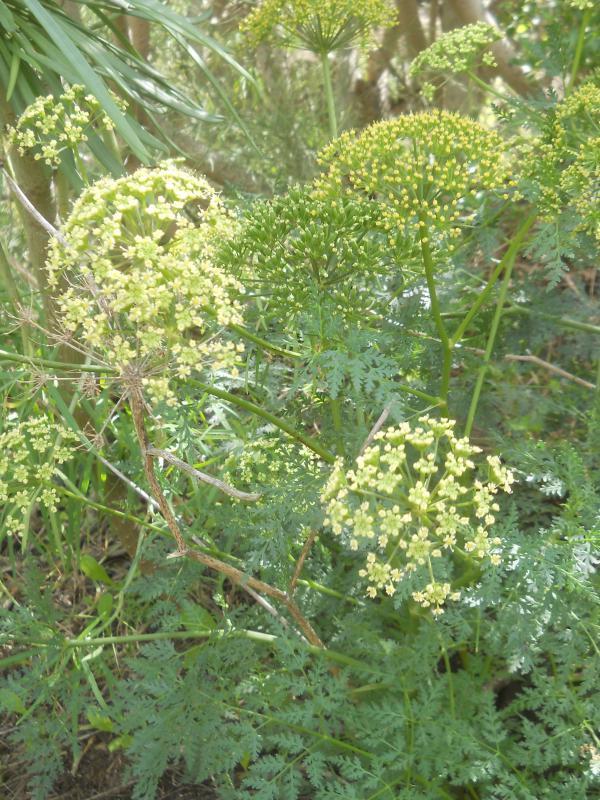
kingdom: Plantae
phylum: Tracheophyta
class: Magnoliopsida
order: Apiales
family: Apiaceae
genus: Todaroa
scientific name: Todaroa aurea
